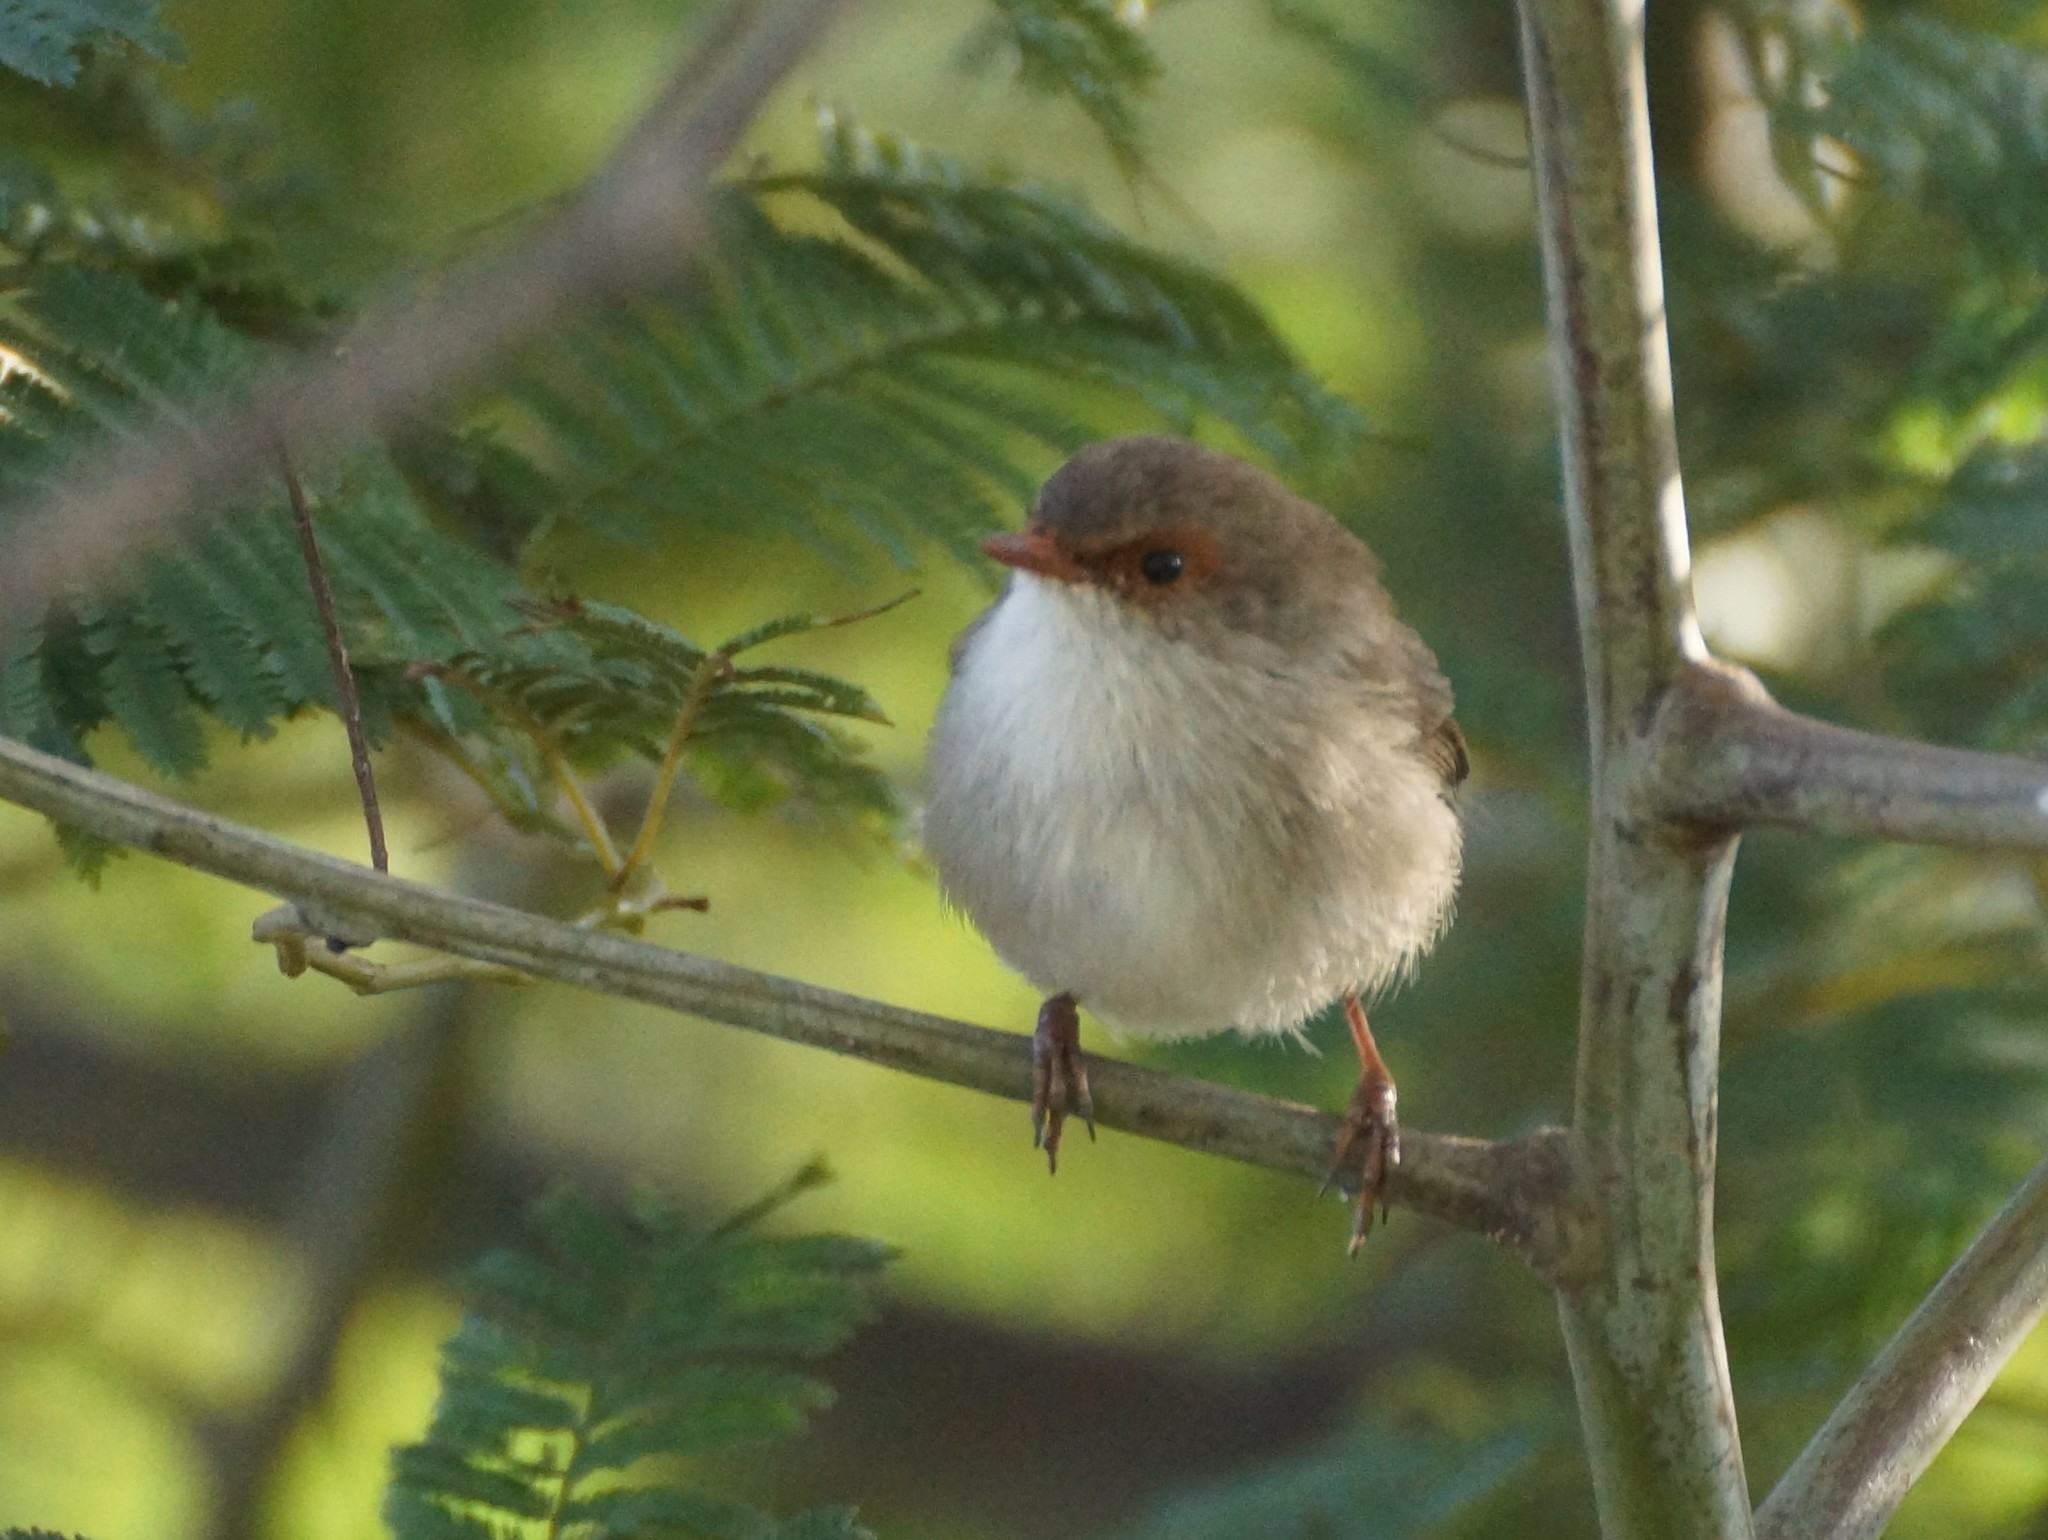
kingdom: Animalia
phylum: Chordata
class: Aves
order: Passeriformes
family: Maluridae
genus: Malurus
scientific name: Malurus cyaneus
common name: Superb fairywren
